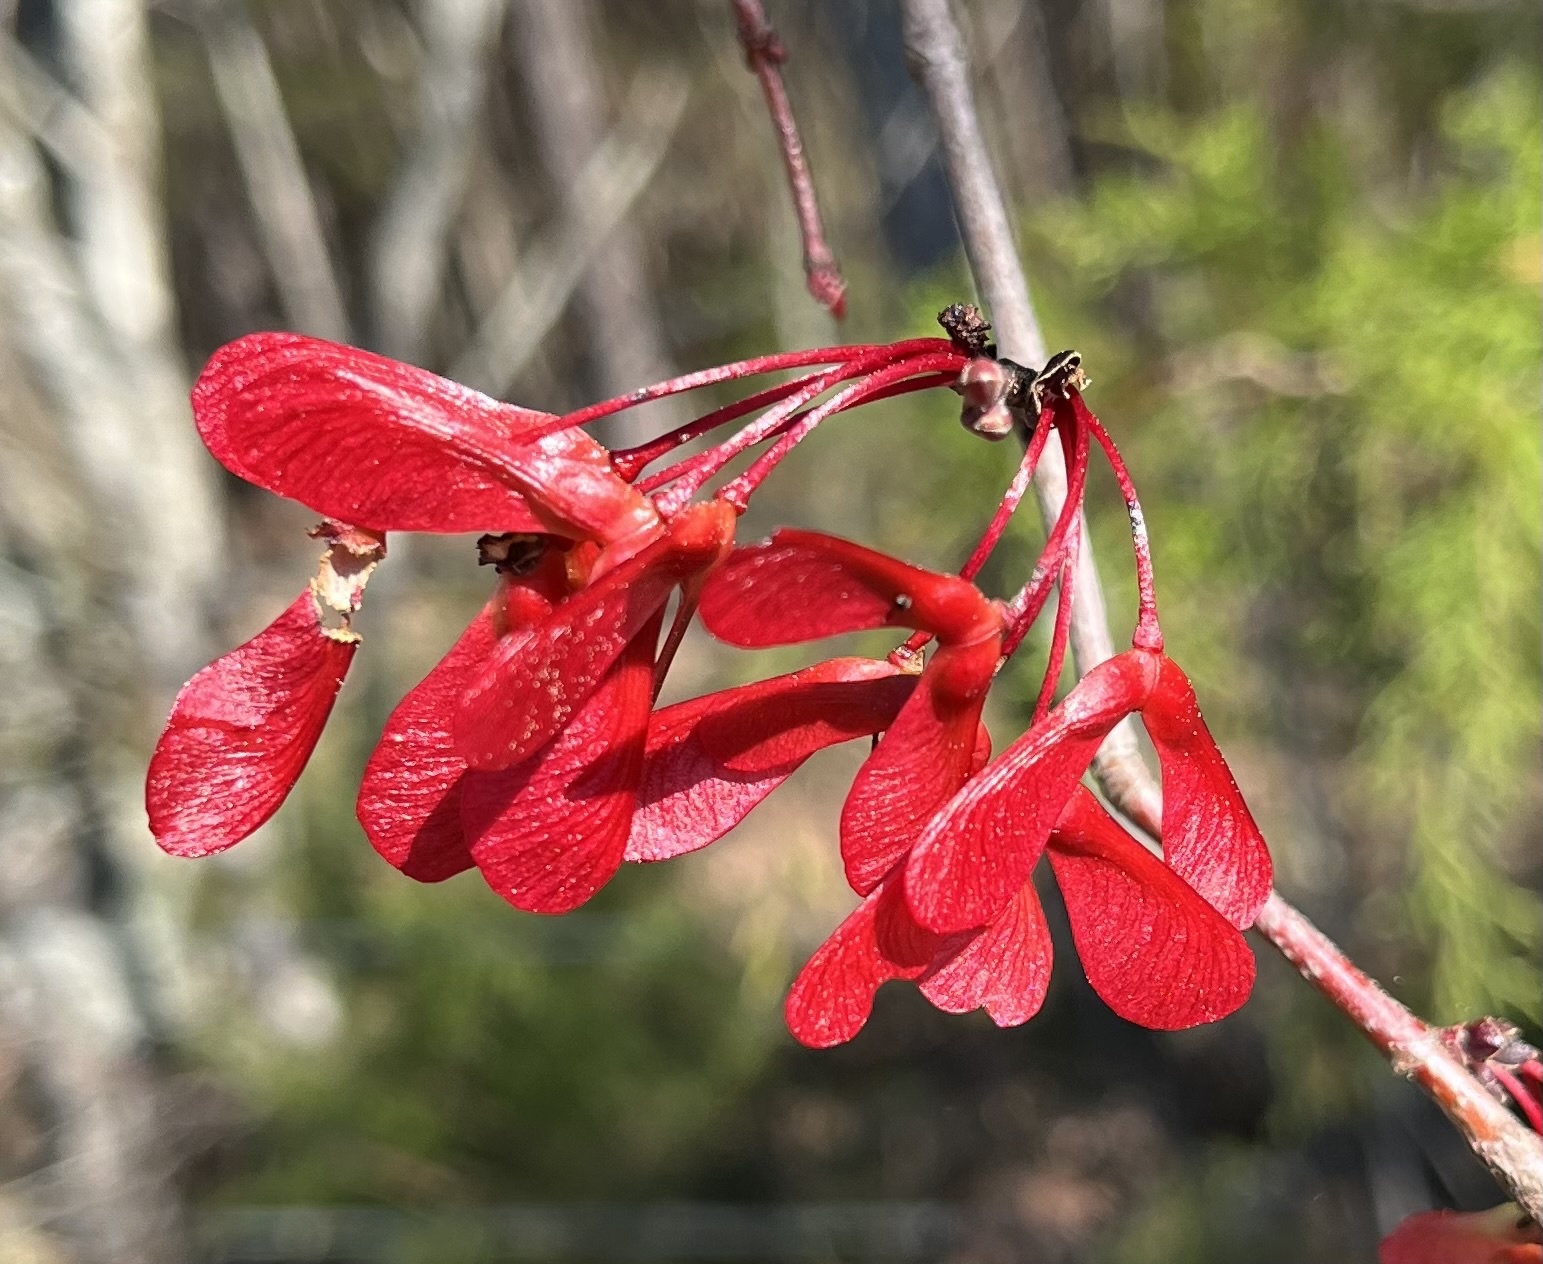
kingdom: Plantae
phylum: Tracheophyta
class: Magnoliopsida
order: Sapindales
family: Sapindaceae
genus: Acer
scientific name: Acer rubrum
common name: Red maple
